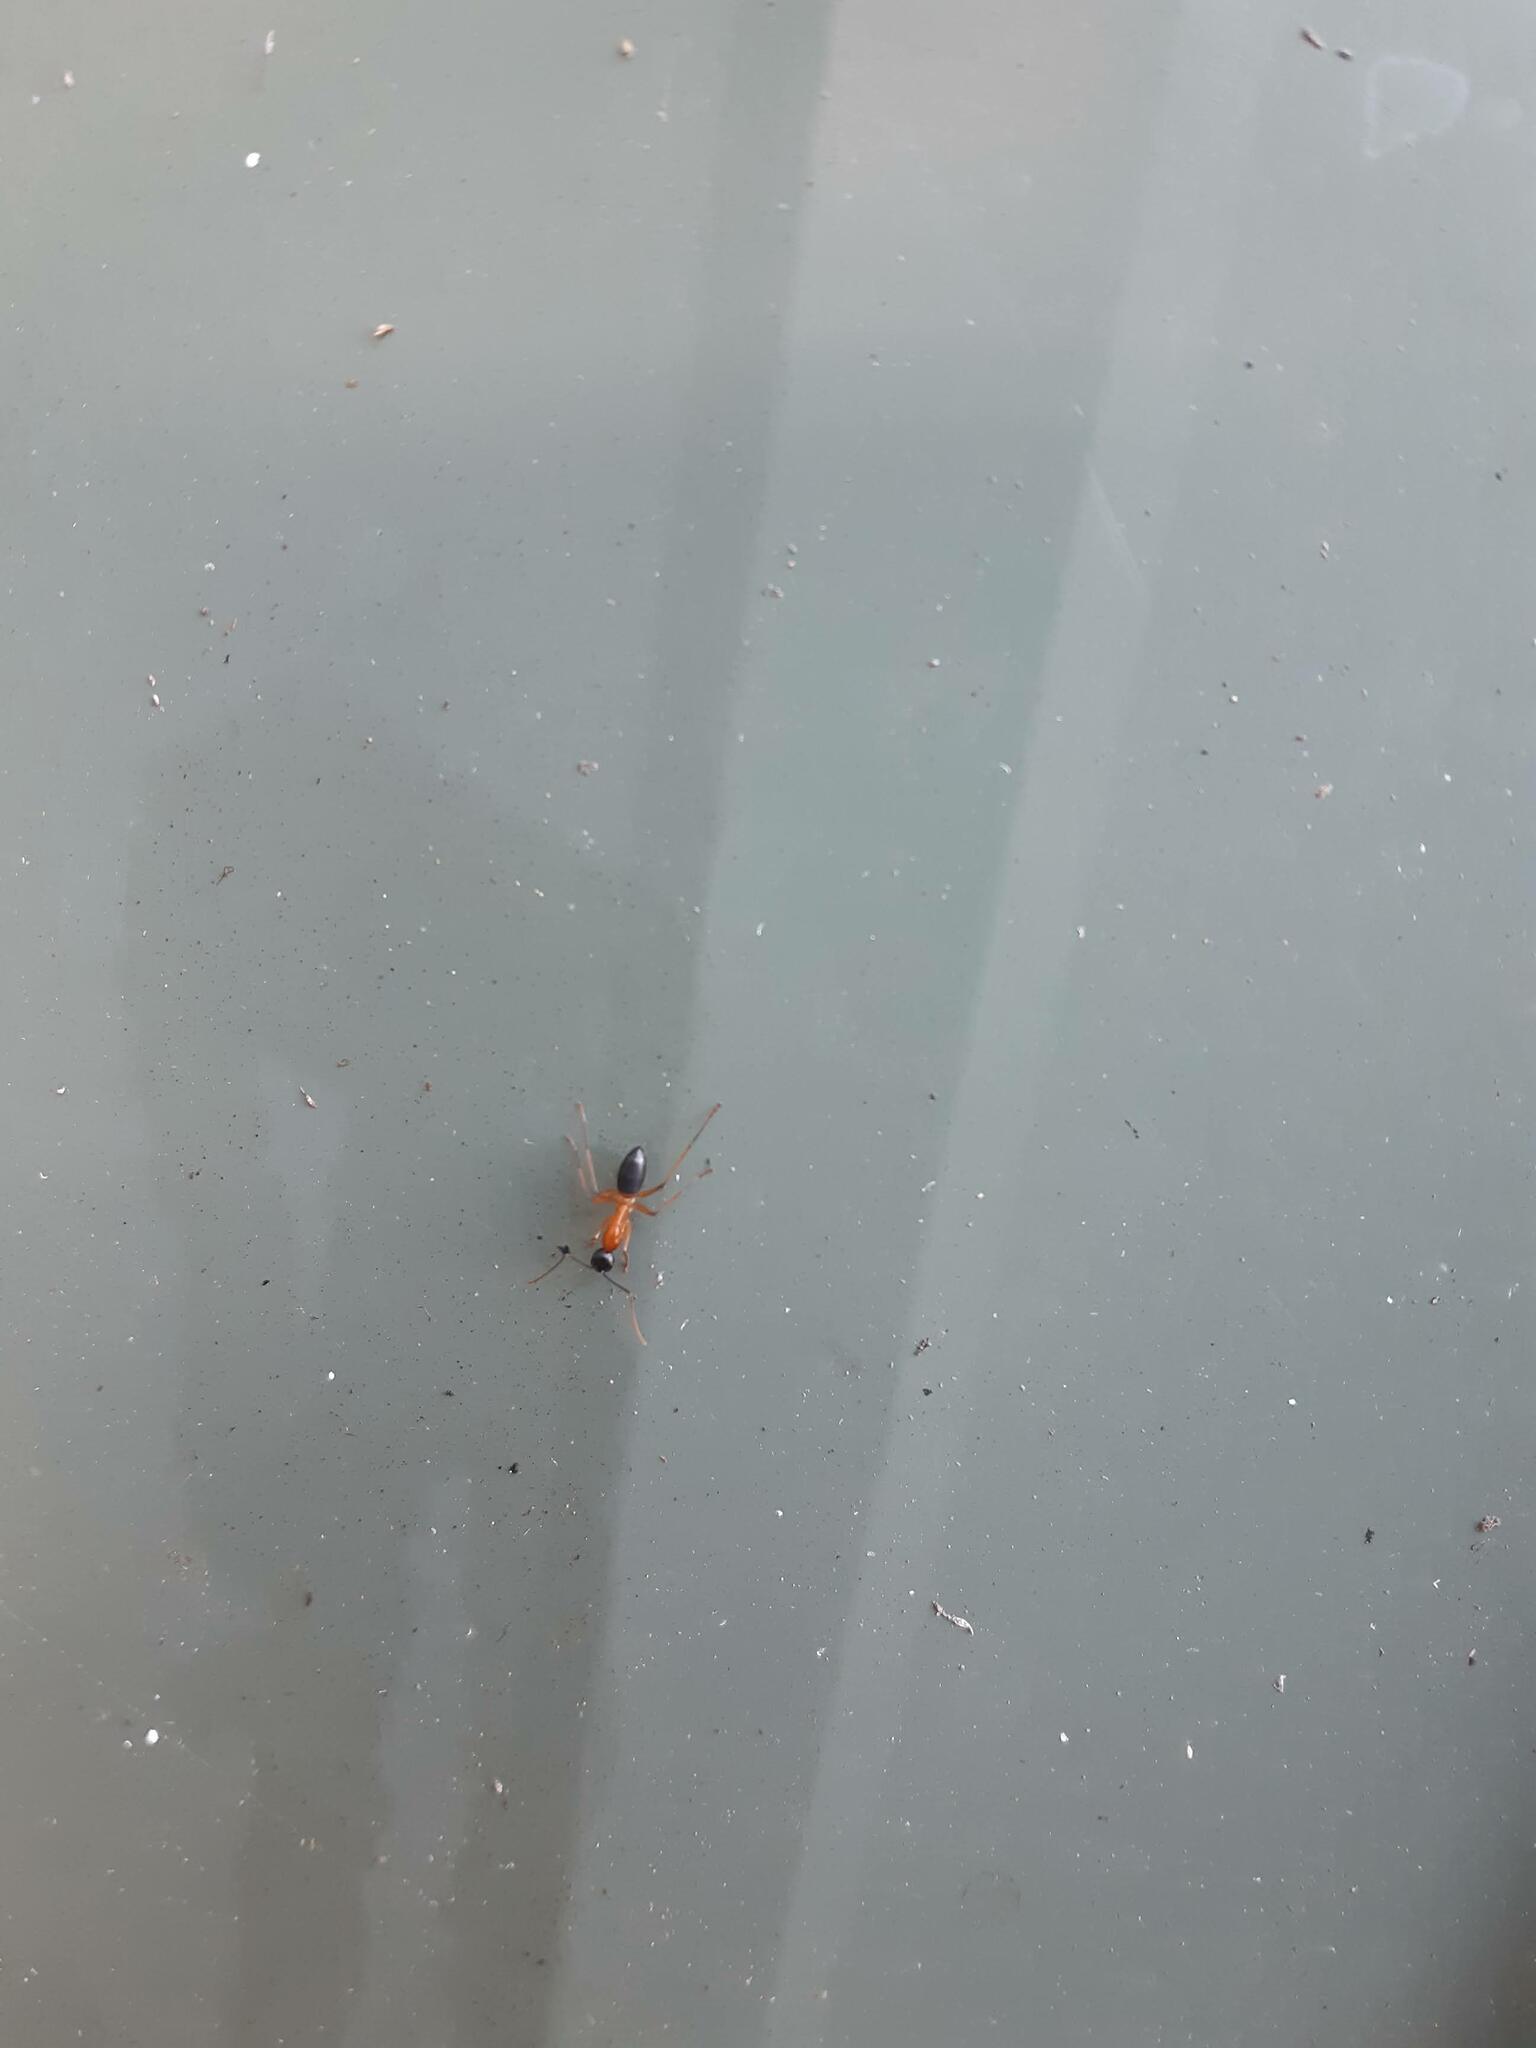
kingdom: Animalia
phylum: Arthropoda
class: Insecta
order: Hymenoptera
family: Formicidae
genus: Camponotus
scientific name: Camponotus consobrinus
